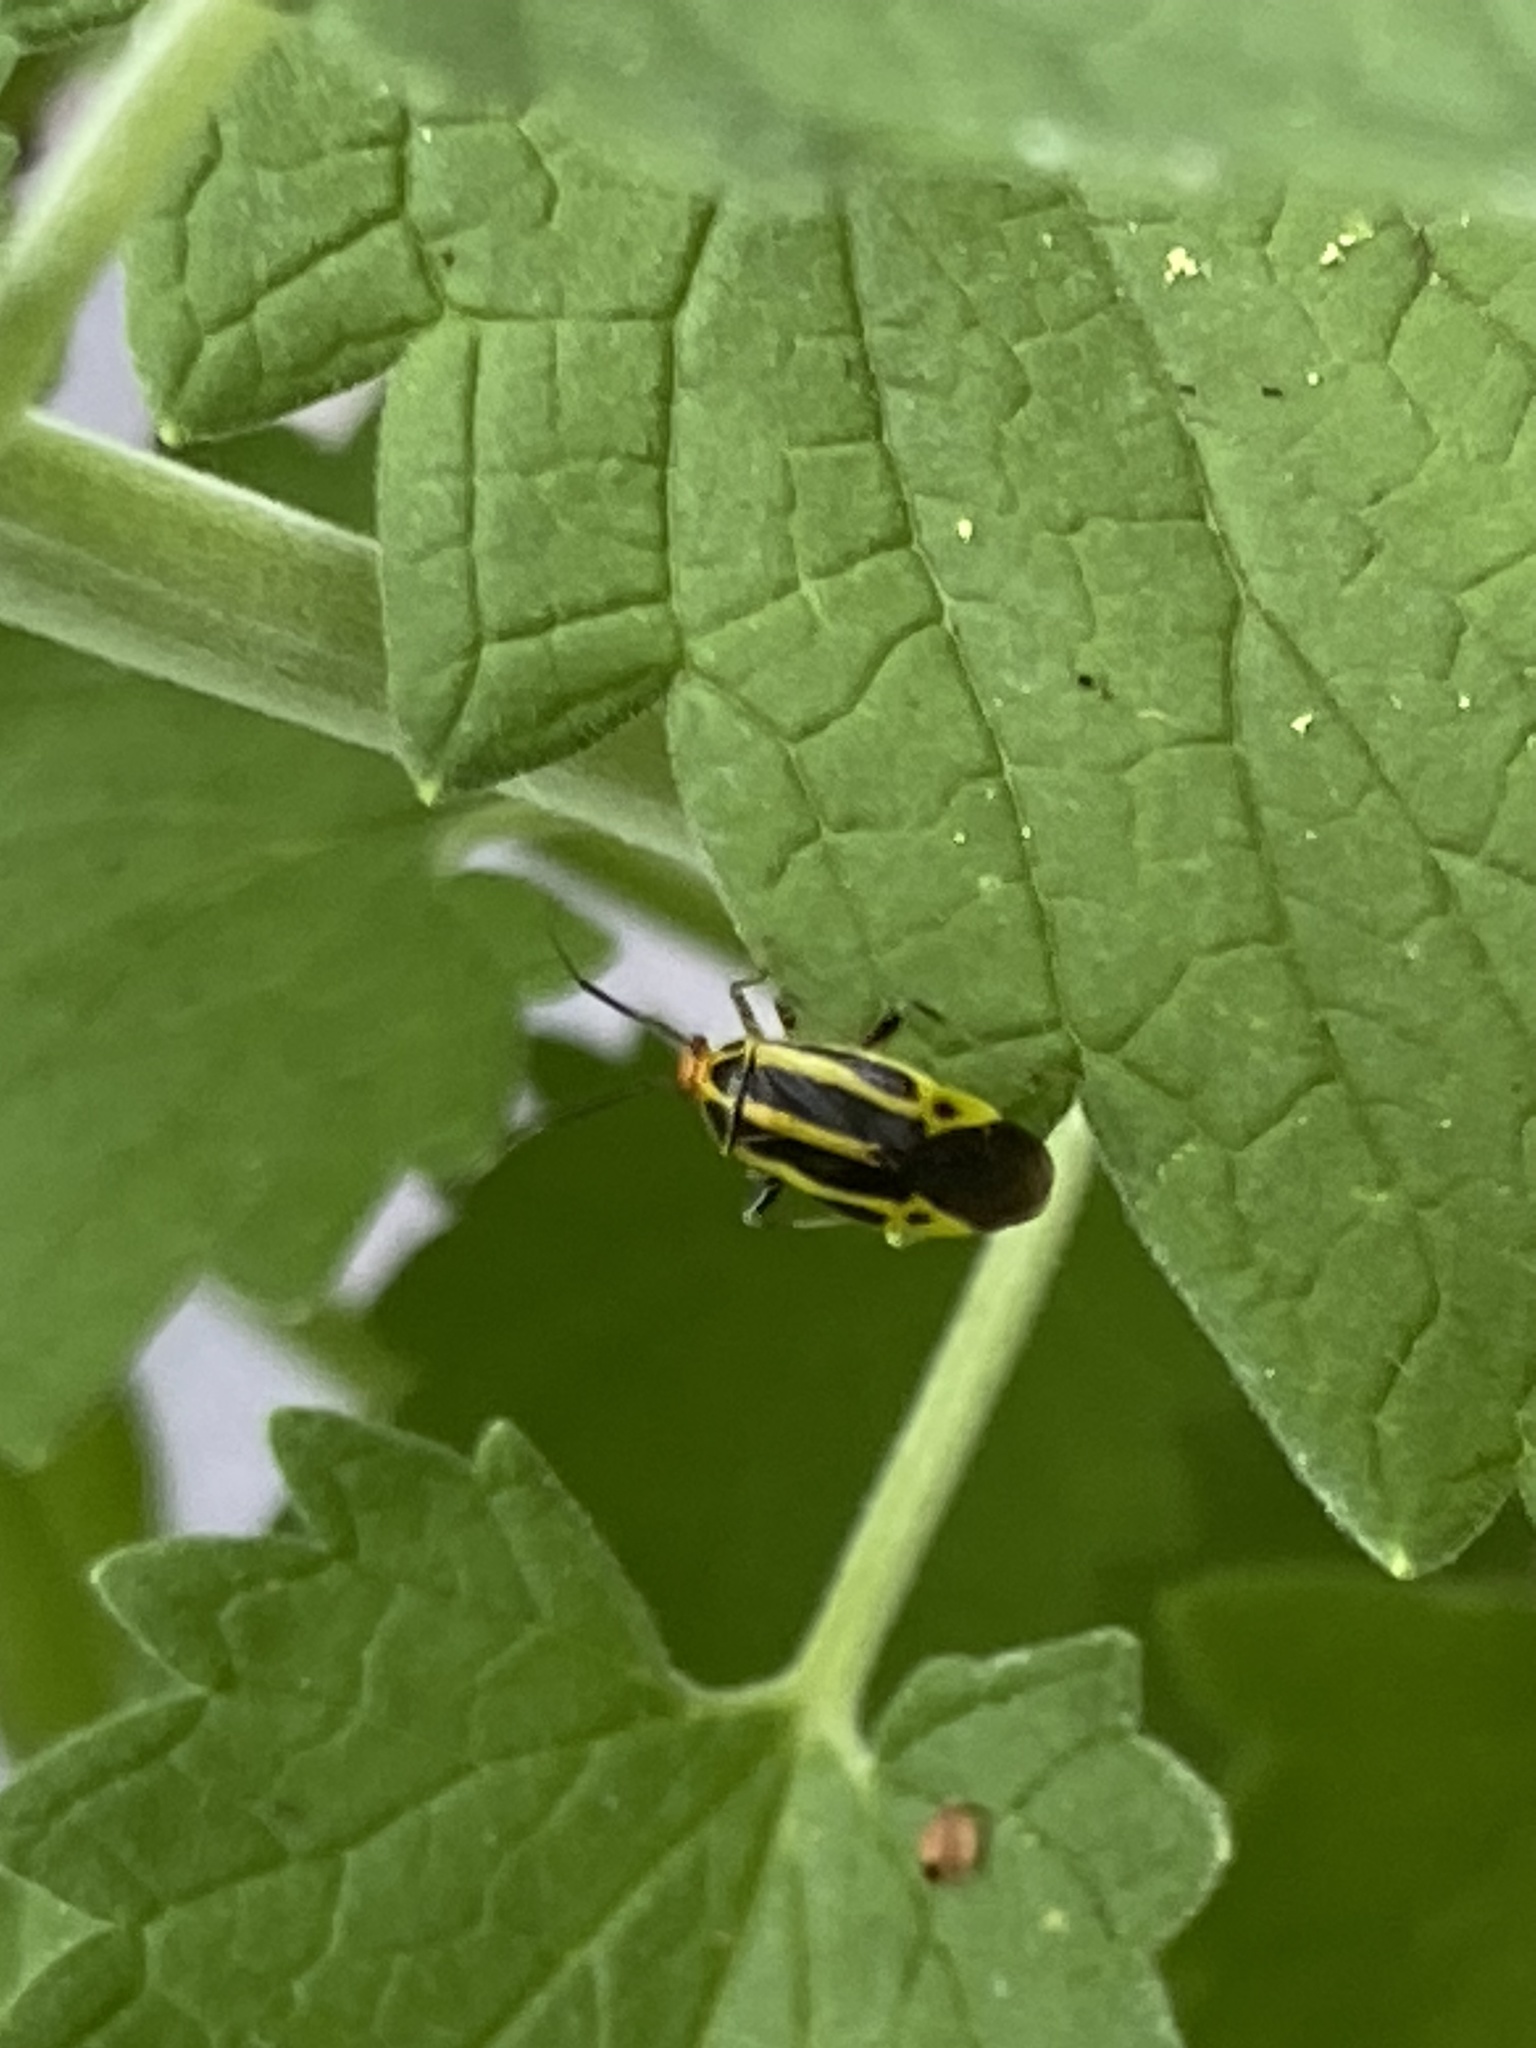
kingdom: Animalia
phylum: Arthropoda
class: Insecta
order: Hemiptera
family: Miridae
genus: Poecilocapsus
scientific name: Poecilocapsus lineatus
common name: Four-lined plant bug
